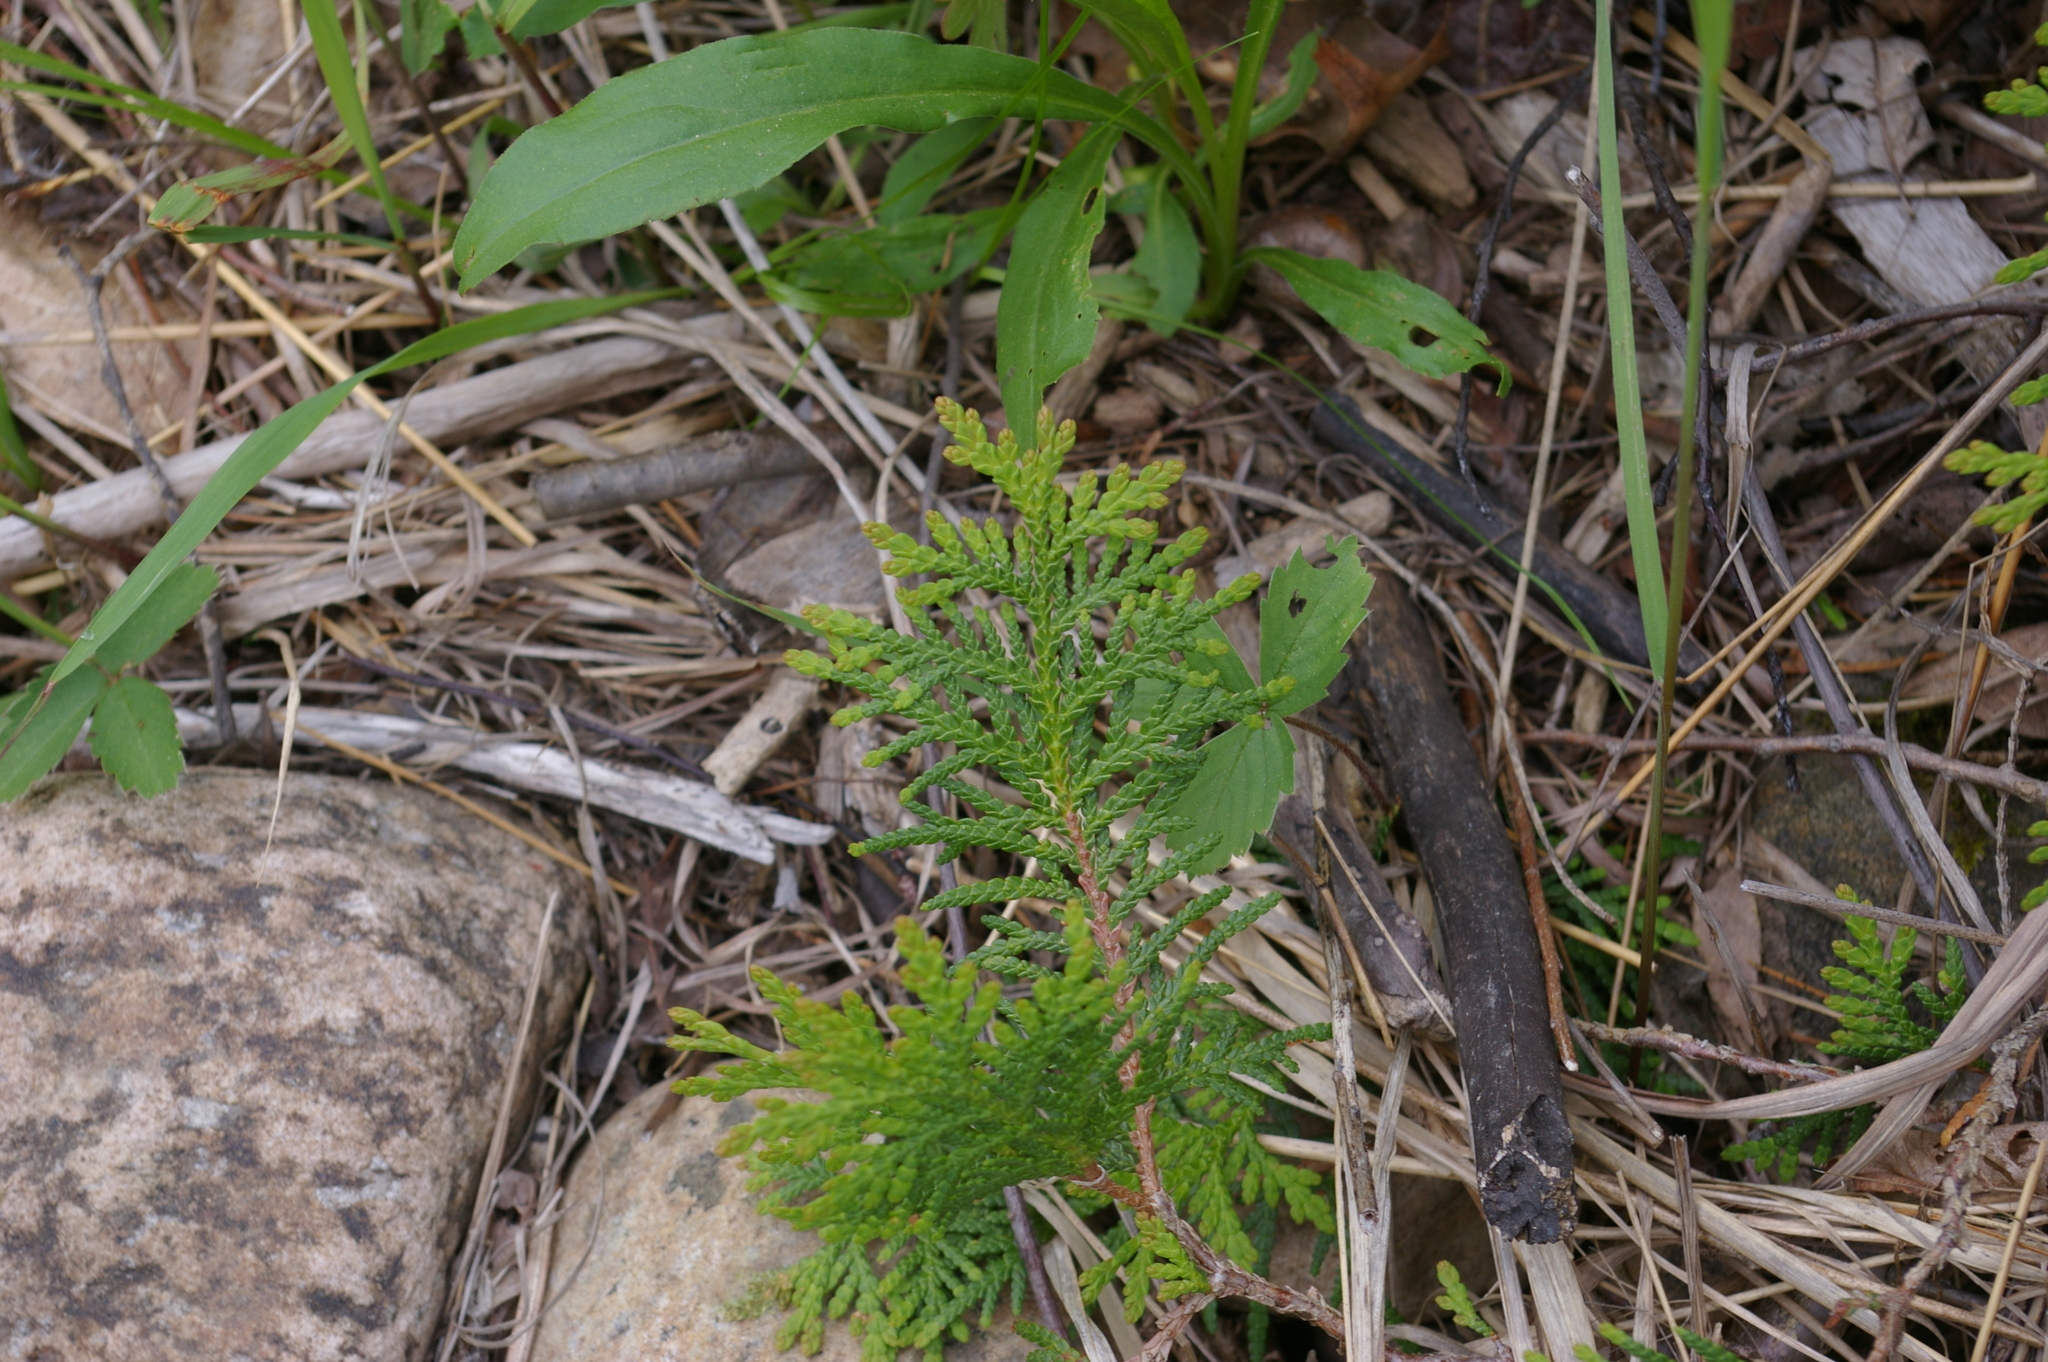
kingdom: Plantae
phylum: Tracheophyta
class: Pinopsida
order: Pinales
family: Cupressaceae
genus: Thuja
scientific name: Thuja occidentalis
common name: Northern white-cedar
